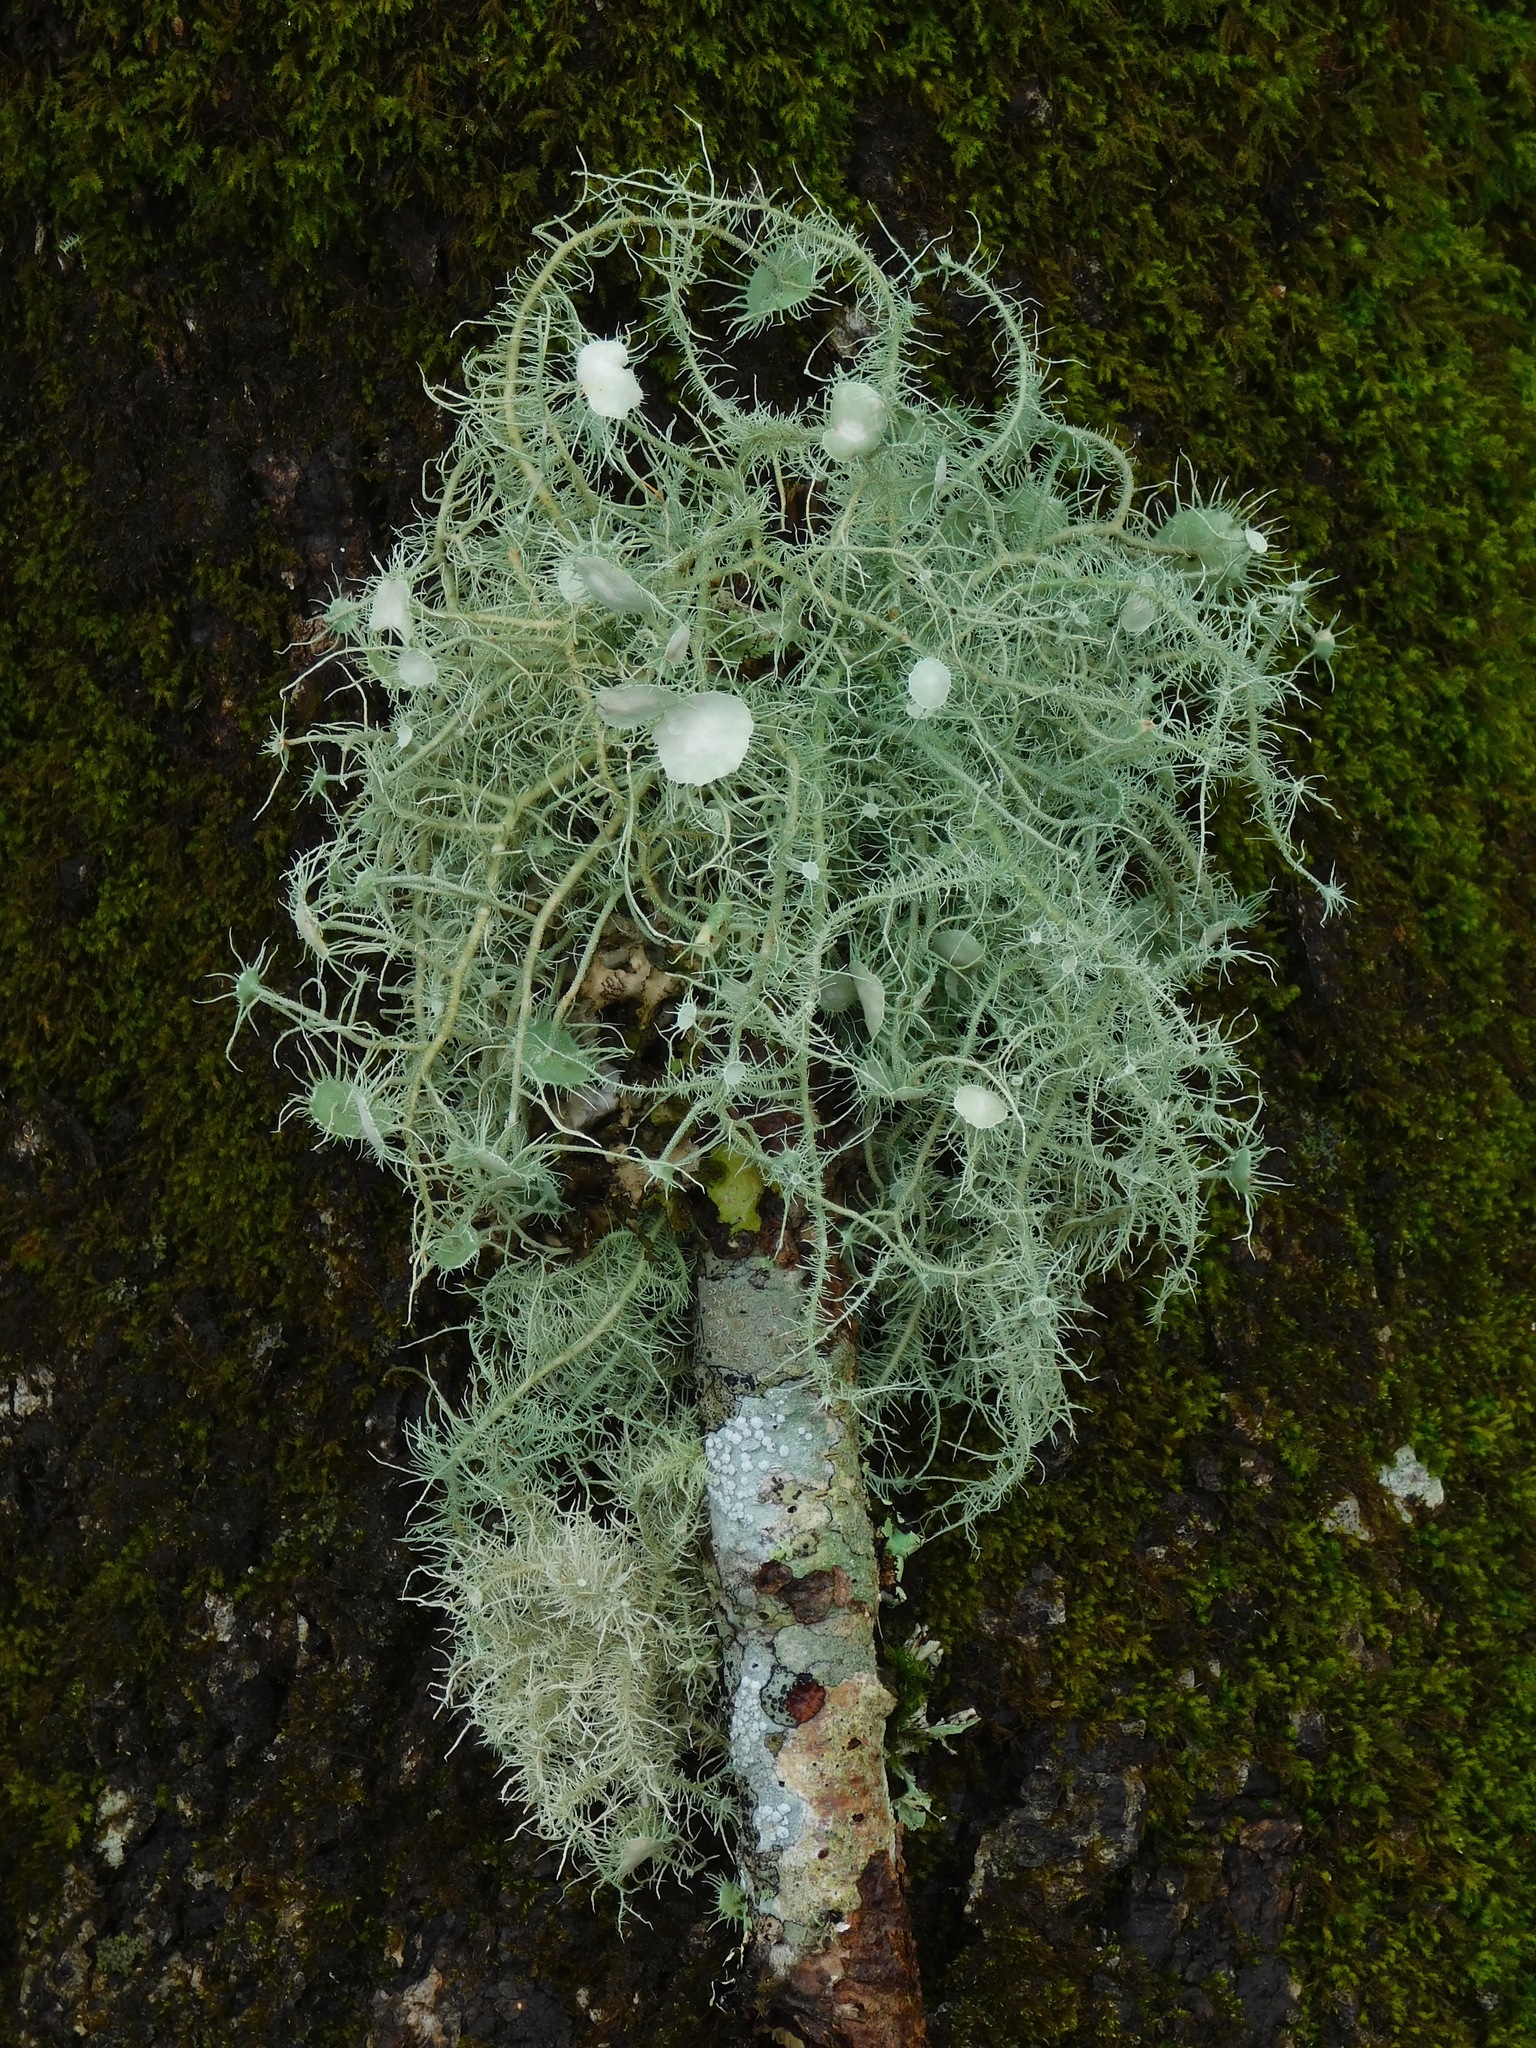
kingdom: Fungi
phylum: Ascomycota
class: Lecanoromycetes
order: Lecanorales
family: Parmeliaceae
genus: Usnea
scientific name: Usnea strigosa
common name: Bushy beard lichen
